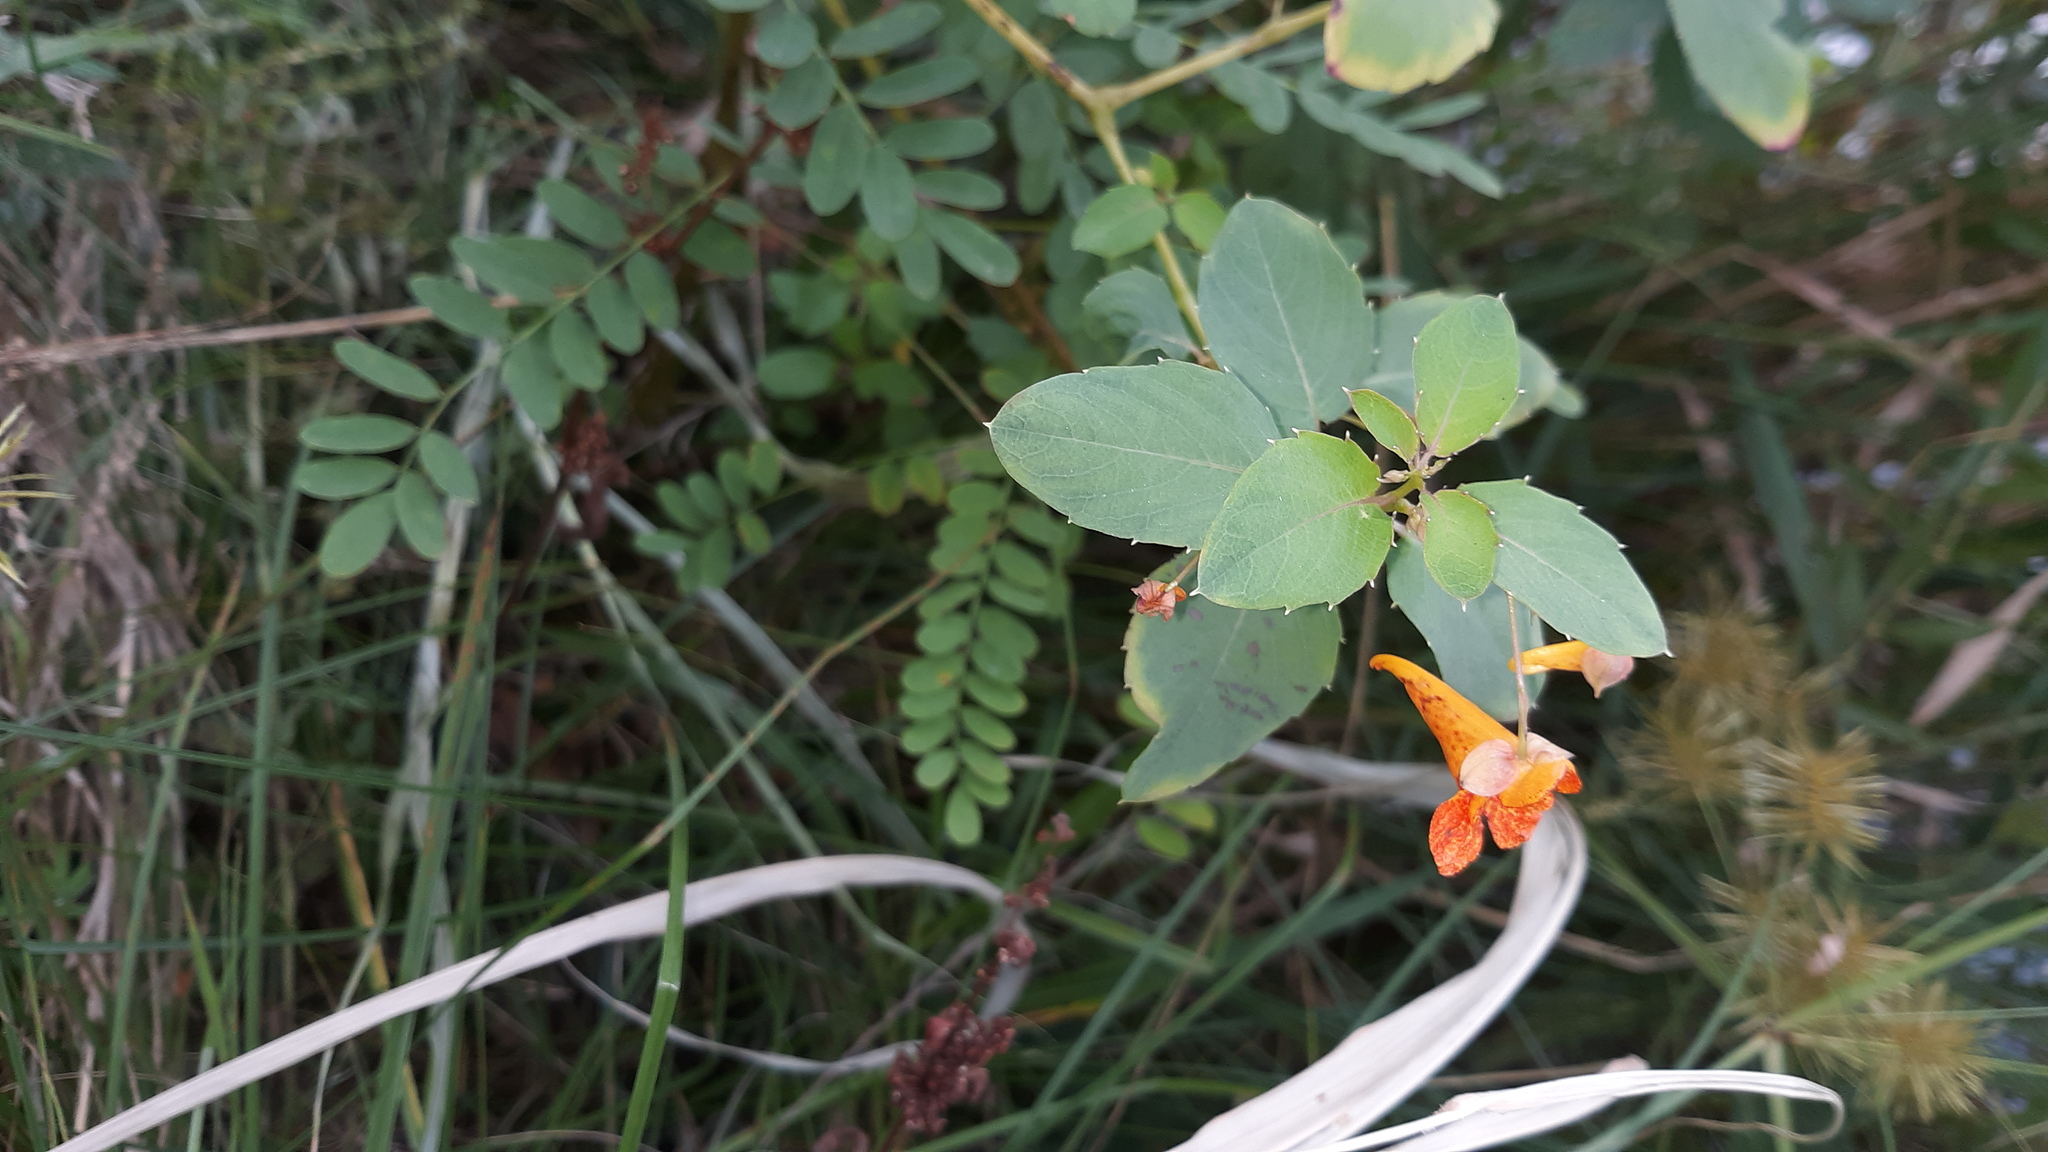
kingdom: Plantae
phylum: Tracheophyta
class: Magnoliopsida
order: Ericales
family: Balsaminaceae
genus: Impatiens
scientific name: Impatiens capensis
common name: Orange balsam
